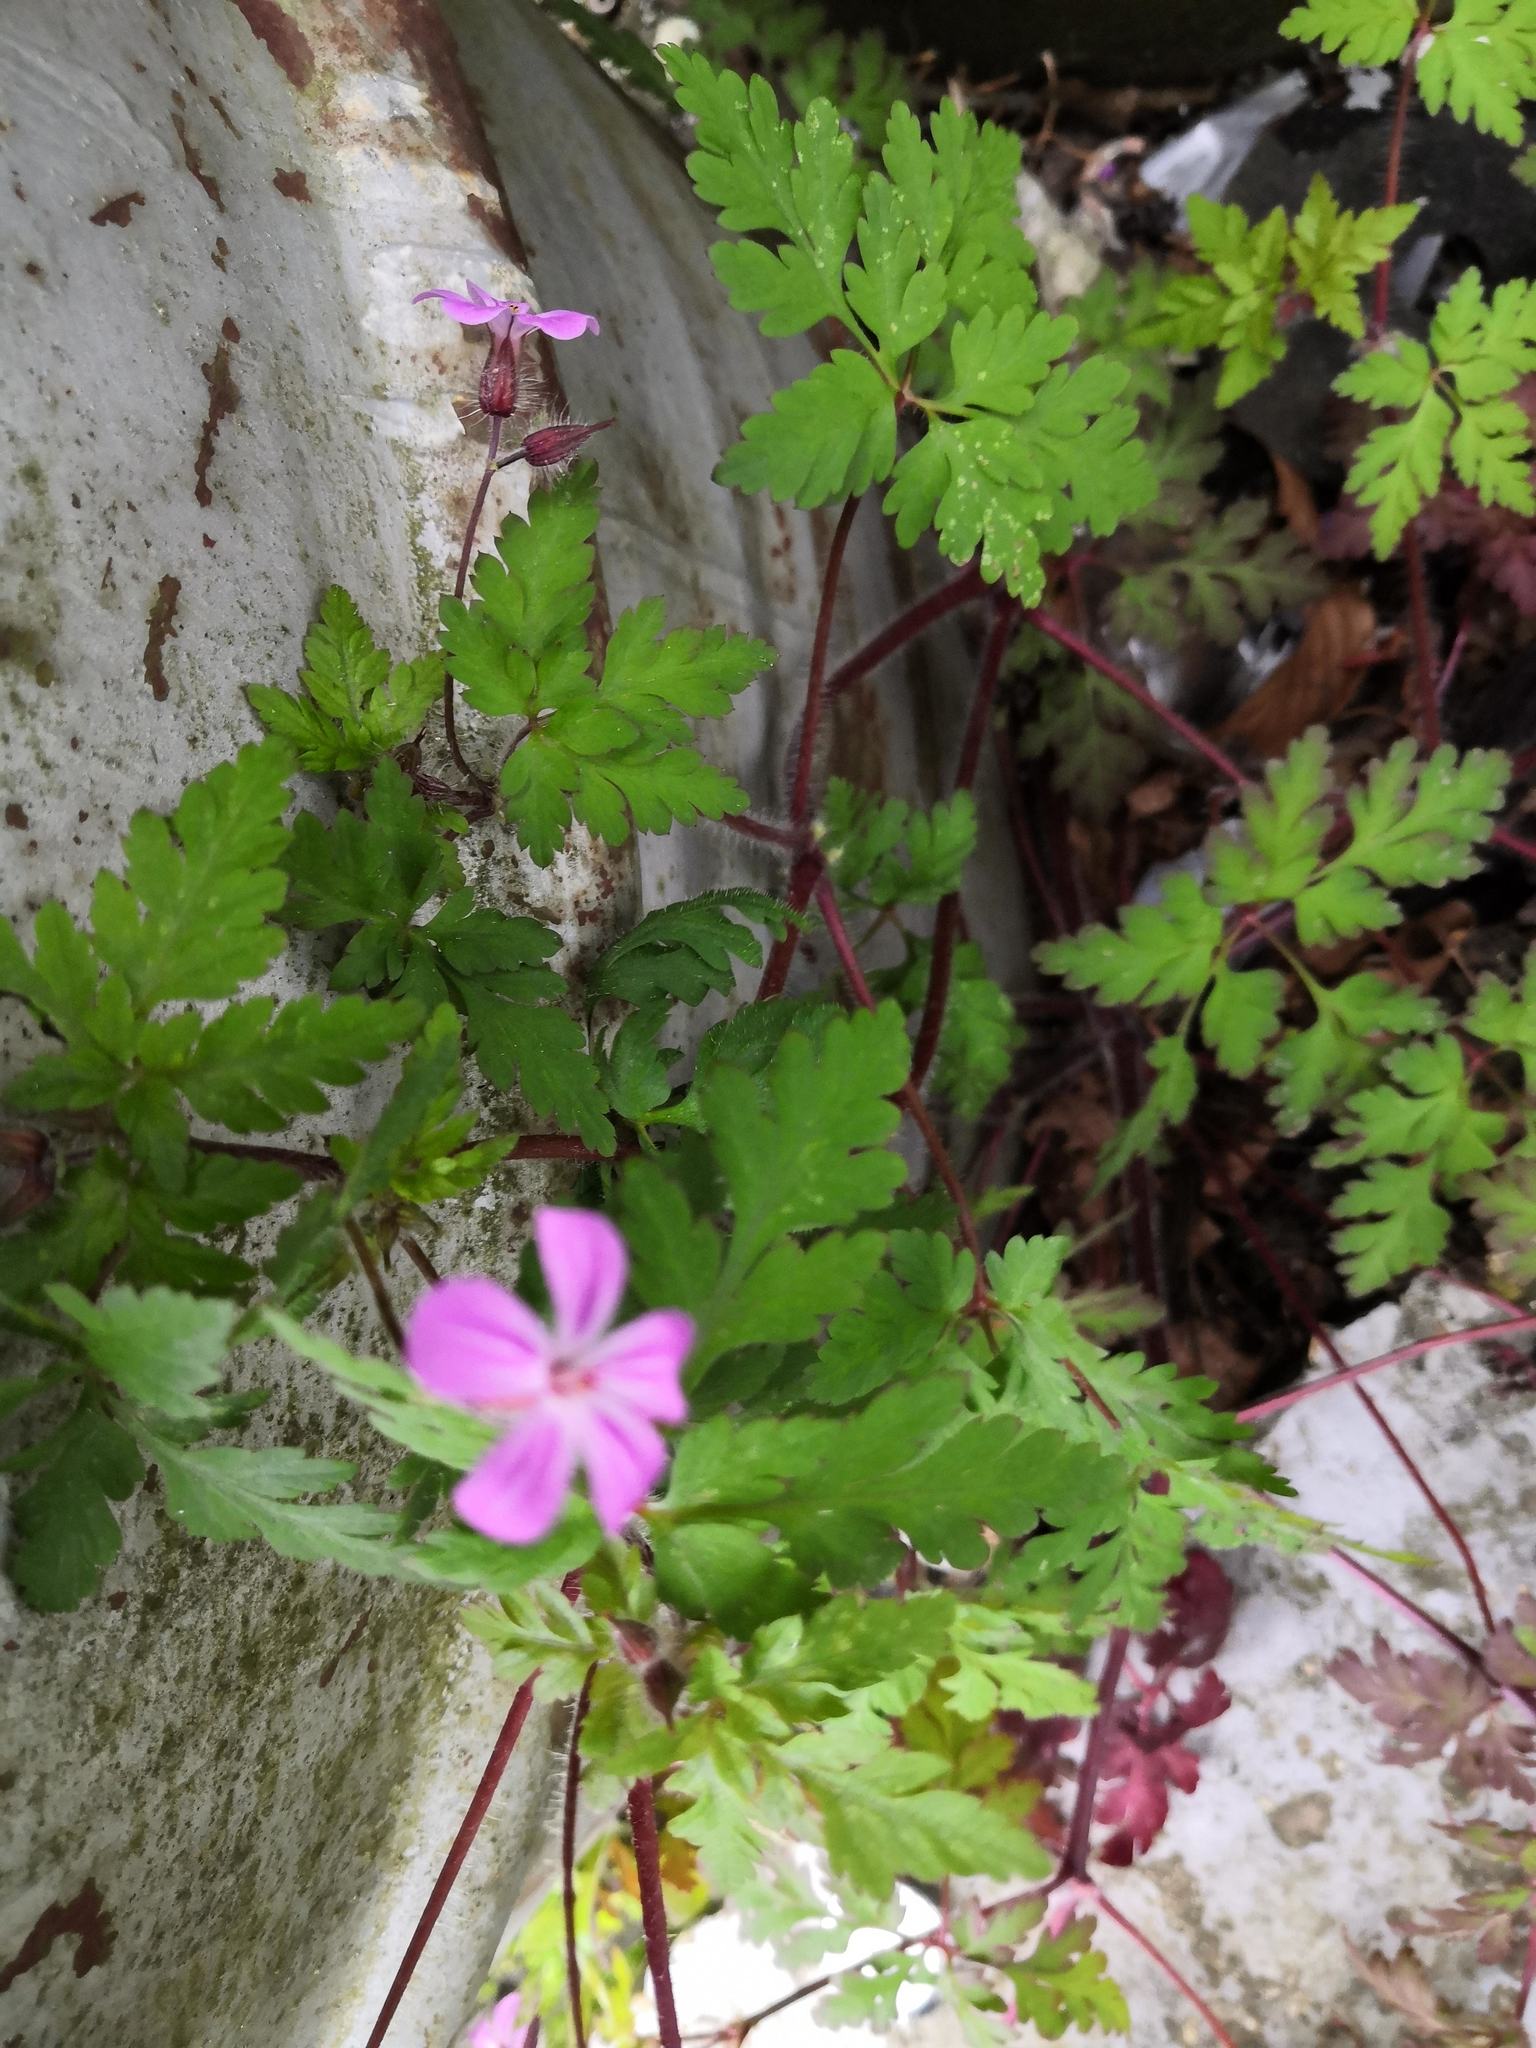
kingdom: Plantae
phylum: Tracheophyta
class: Magnoliopsida
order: Geraniales
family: Geraniaceae
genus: Geranium
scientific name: Geranium robertianum
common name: Herb-robert
